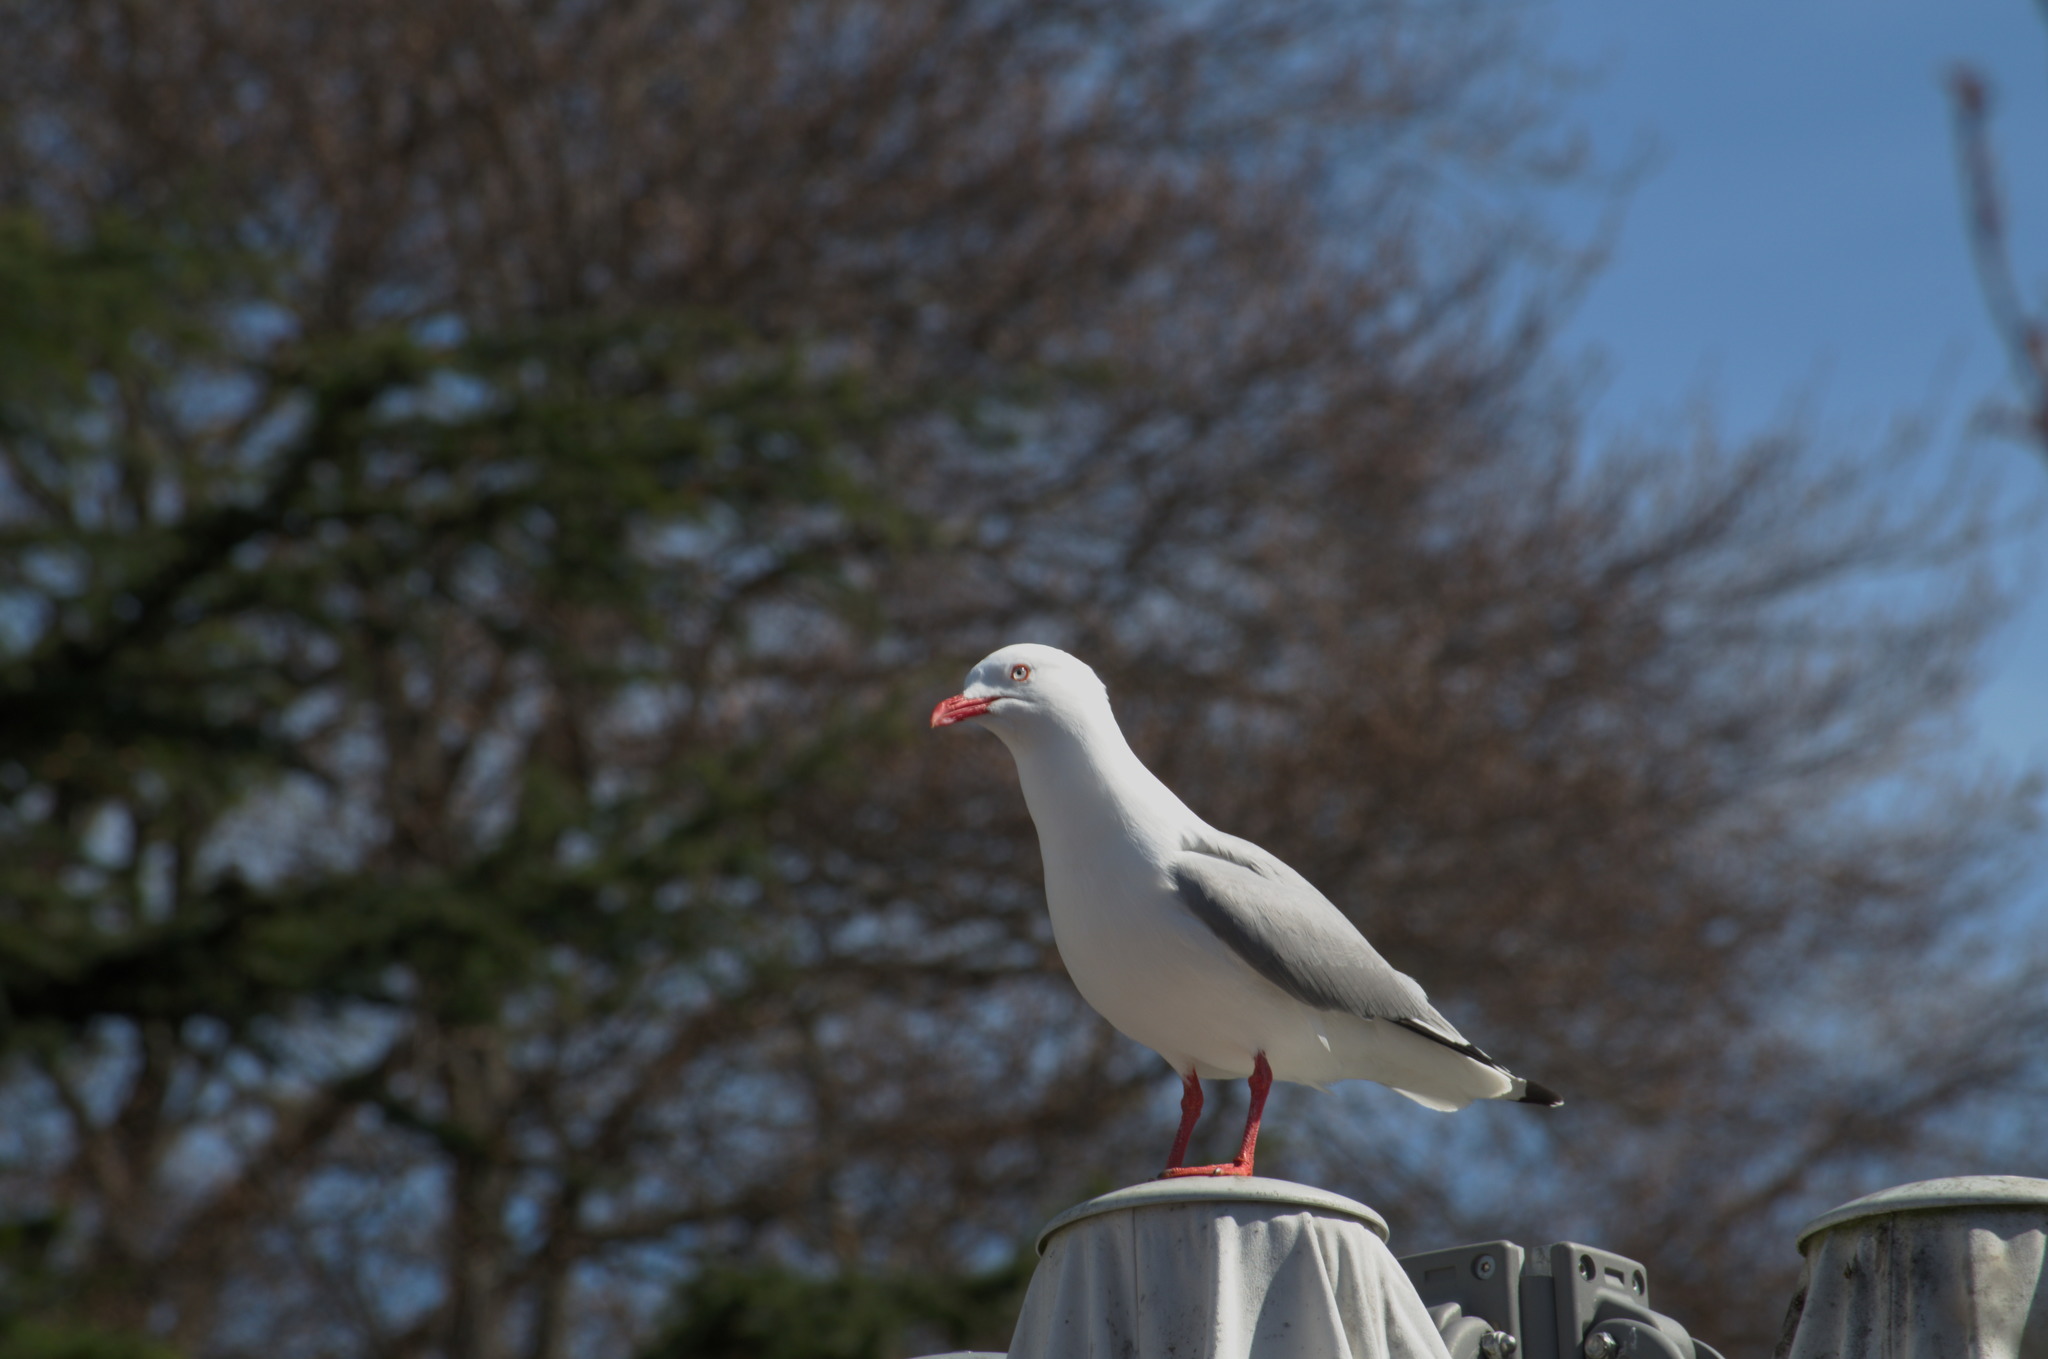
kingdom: Animalia
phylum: Chordata
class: Aves
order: Charadriiformes
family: Laridae
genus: Chroicocephalus
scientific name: Chroicocephalus novaehollandiae
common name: Silver gull
